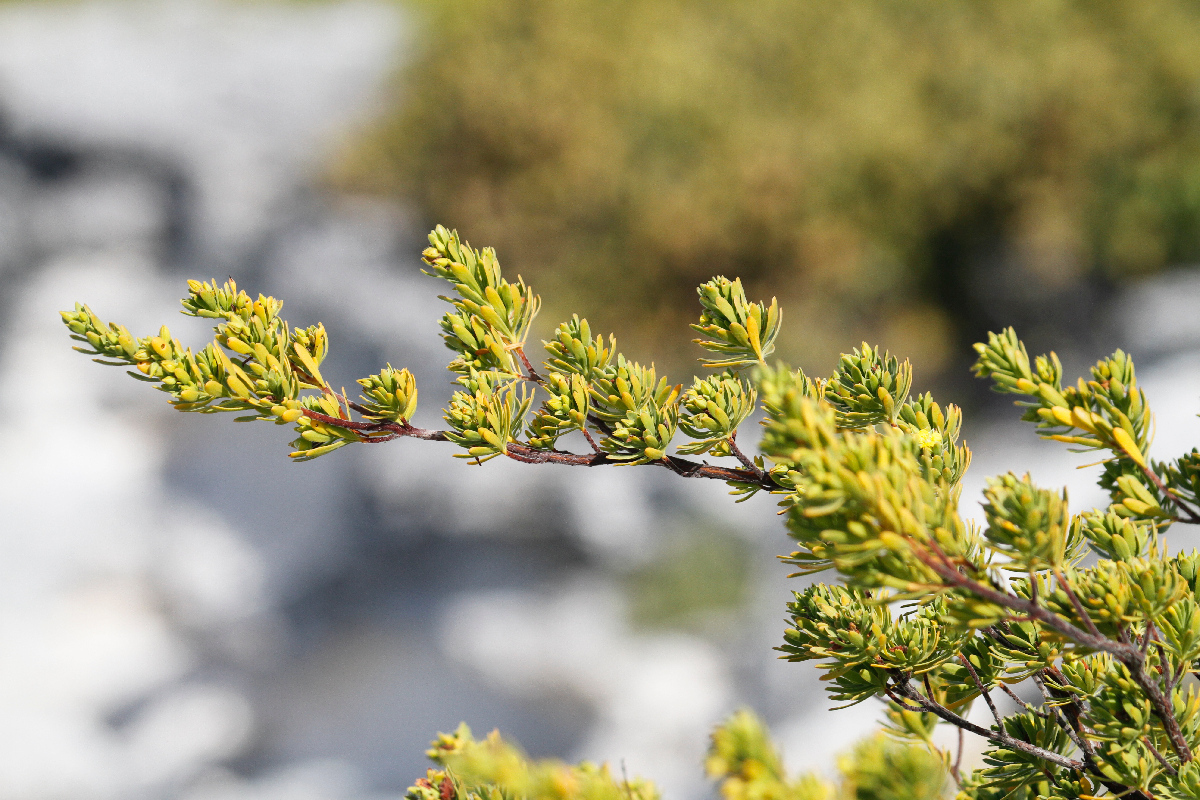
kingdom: Plantae
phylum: Tracheophyta
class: Magnoliopsida
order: Fabales
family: Surianaceae
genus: Suriana
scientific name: Suriana maritima
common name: Bay-cedar
